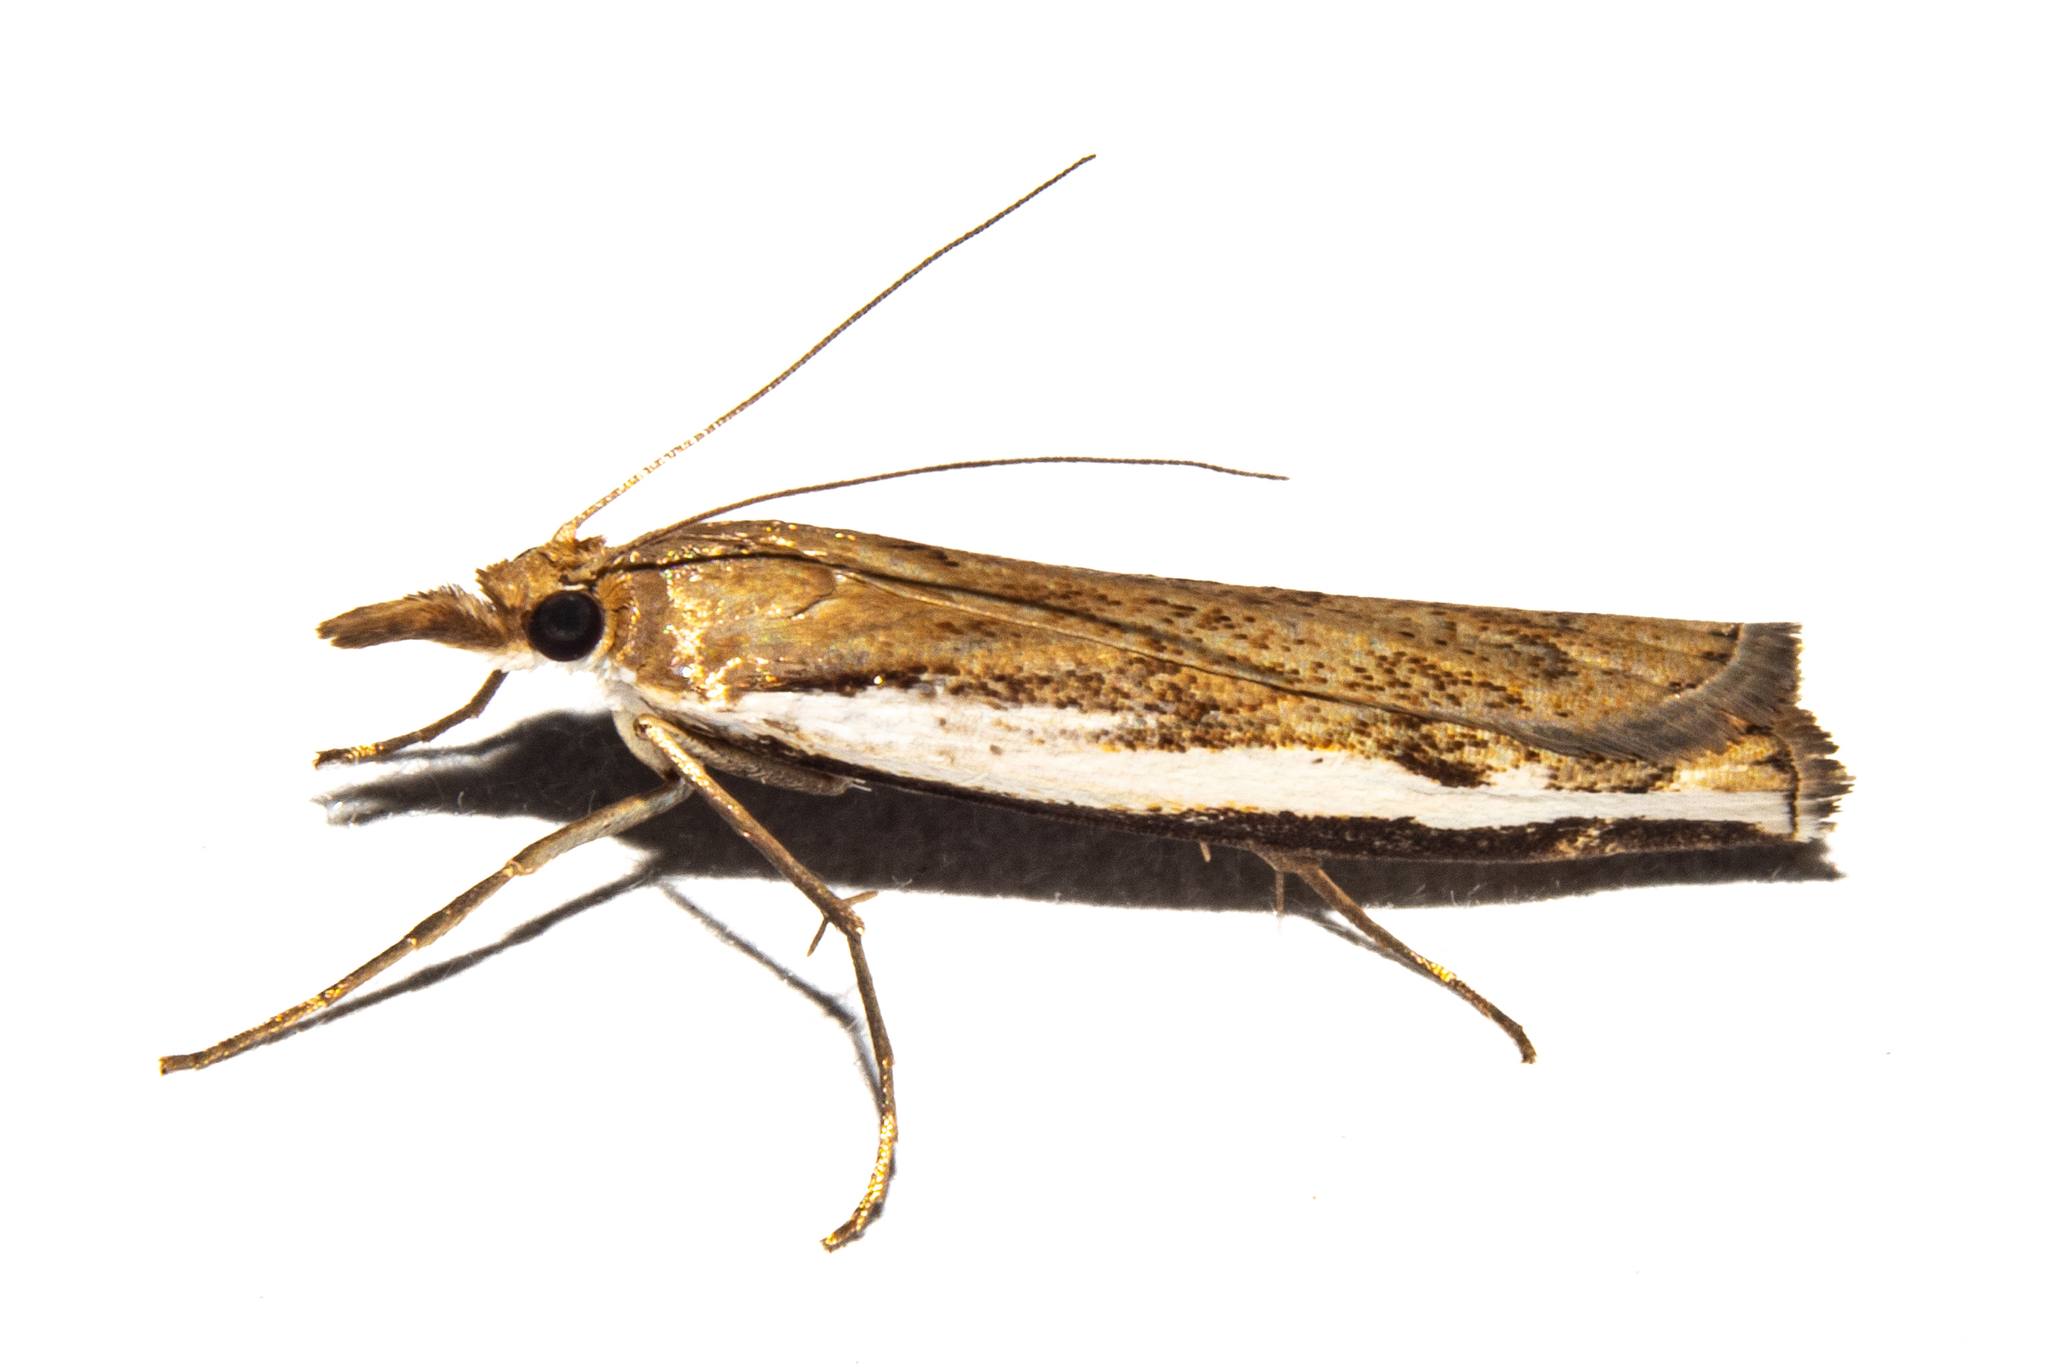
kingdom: Animalia
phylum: Arthropoda
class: Insecta
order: Lepidoptera
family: Crambidae
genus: Orocrambus
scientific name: Orocrambus flexuosellus
